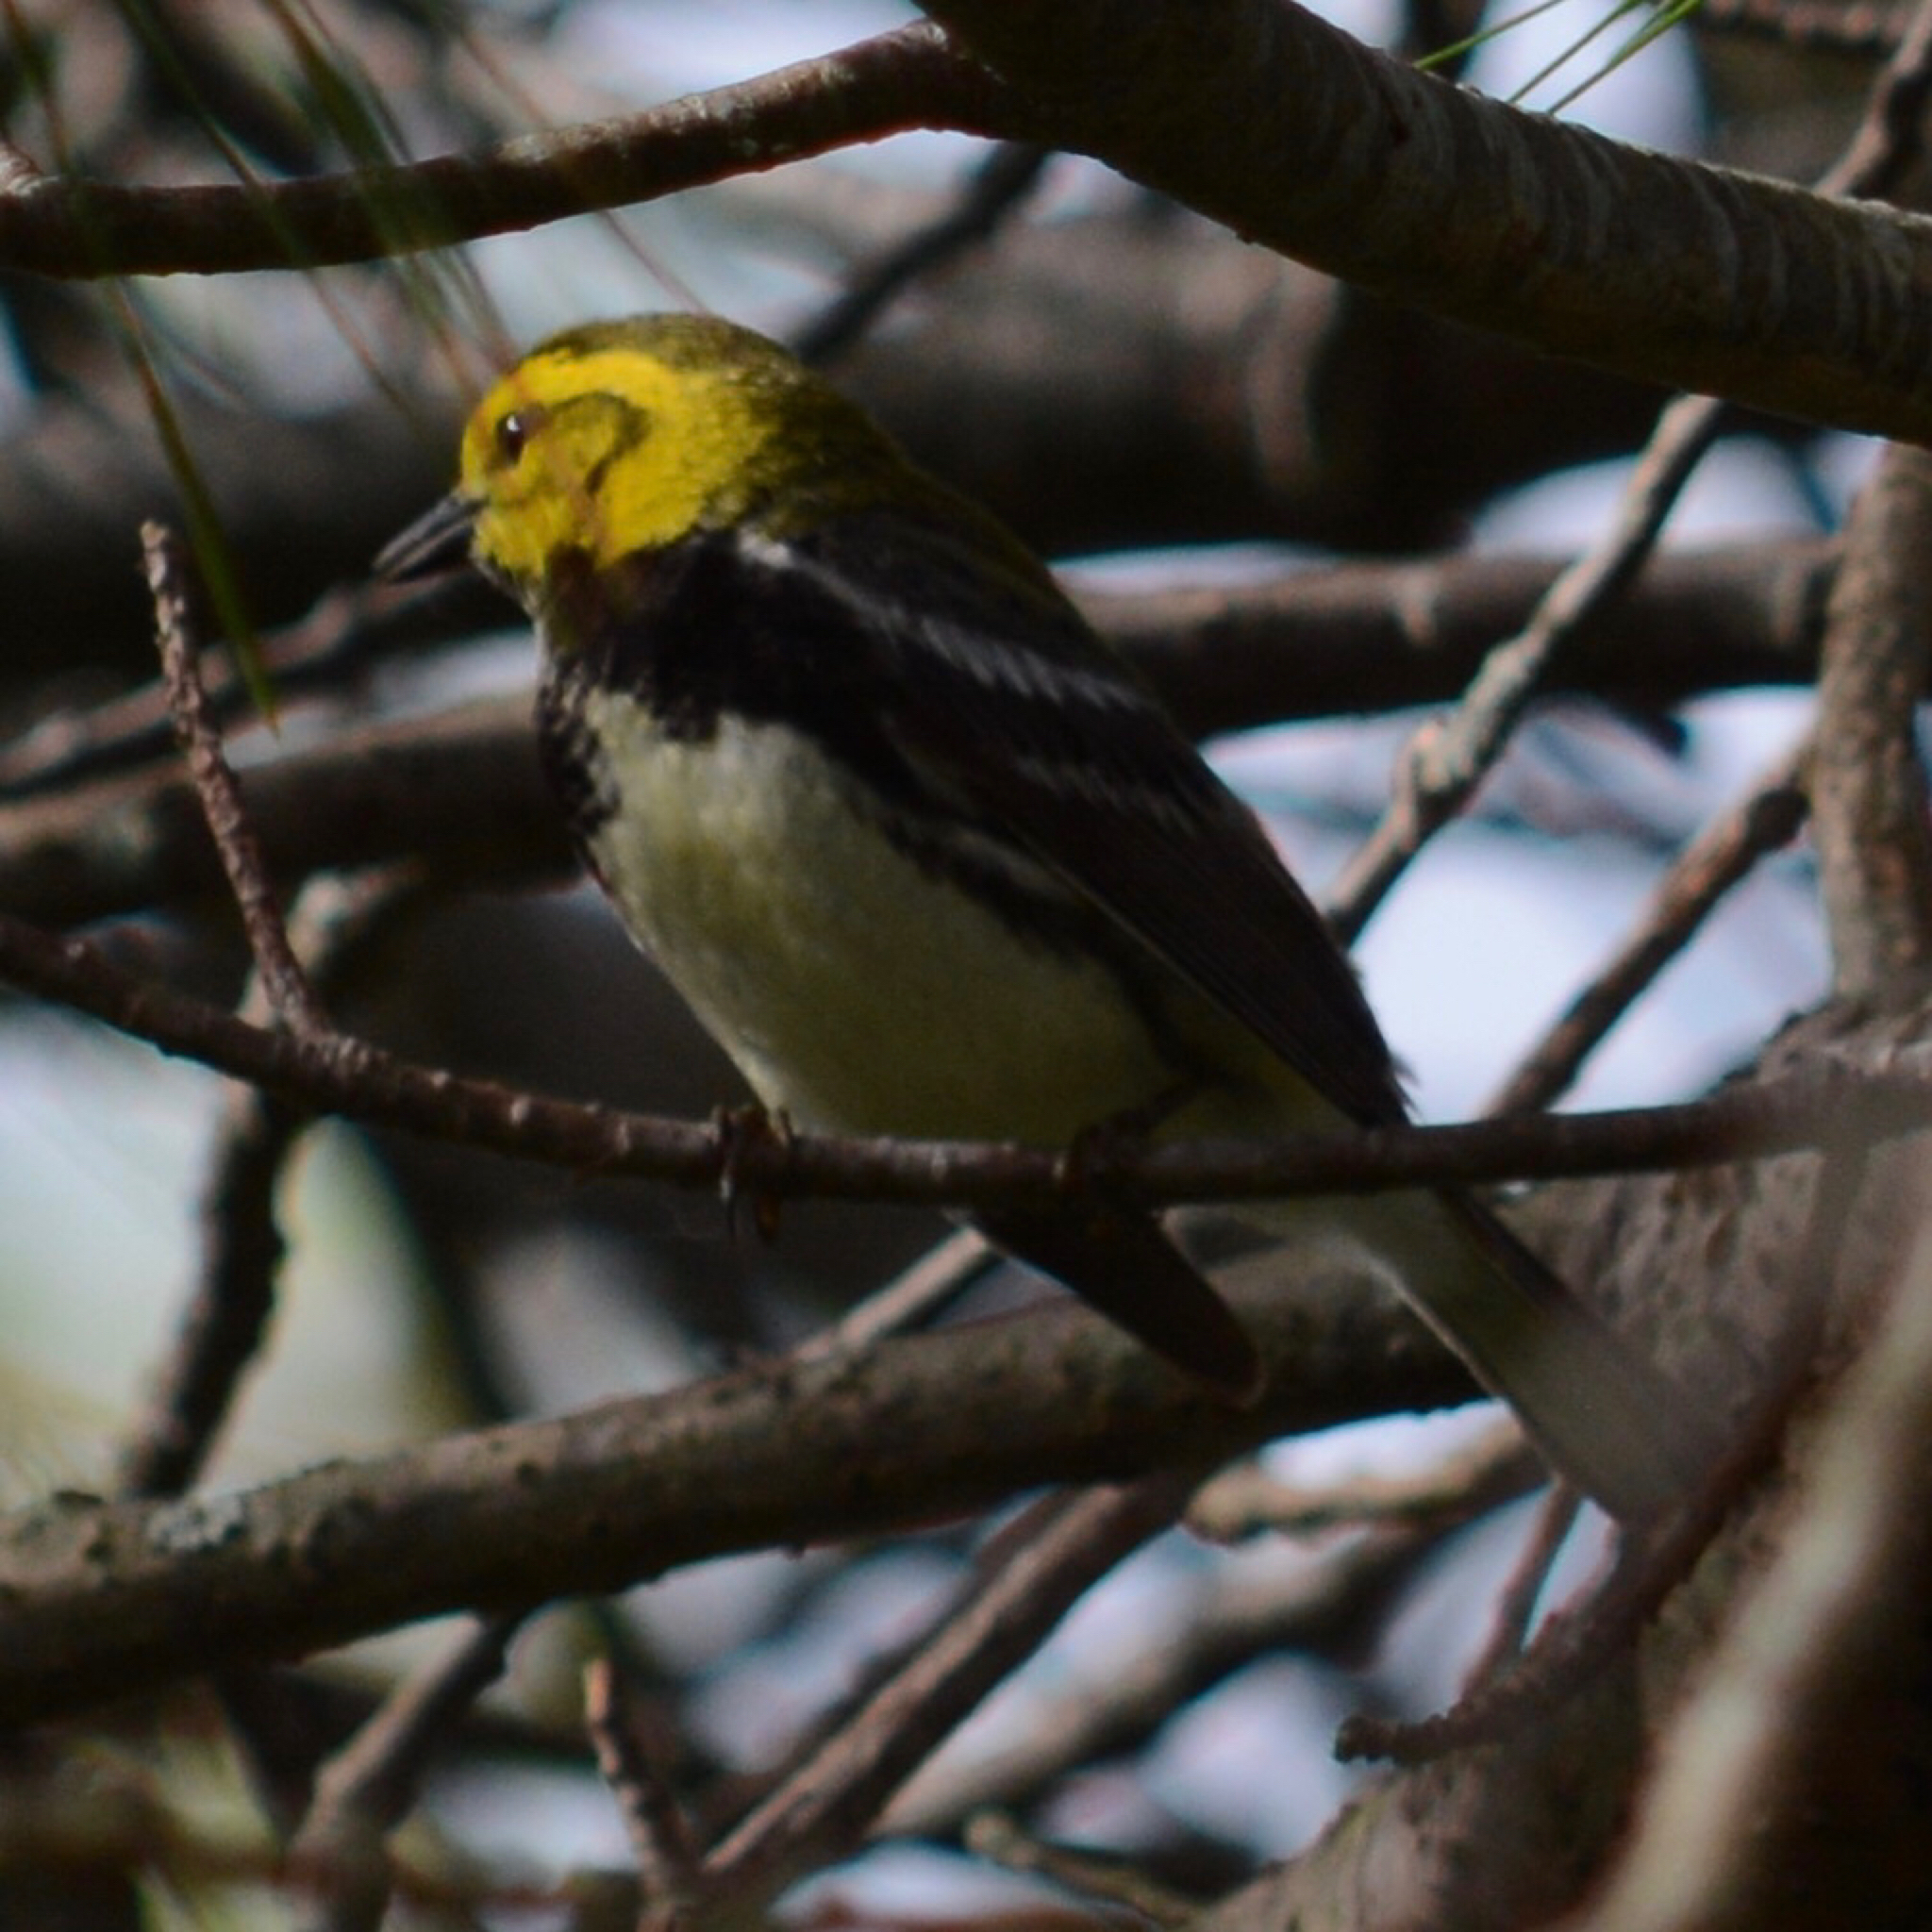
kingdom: Animalia
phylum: Chordata
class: Aves
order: Passeriformes
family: Parulidae
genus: Setophaga
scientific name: Setophaga virens
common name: Black-throated green warbler
